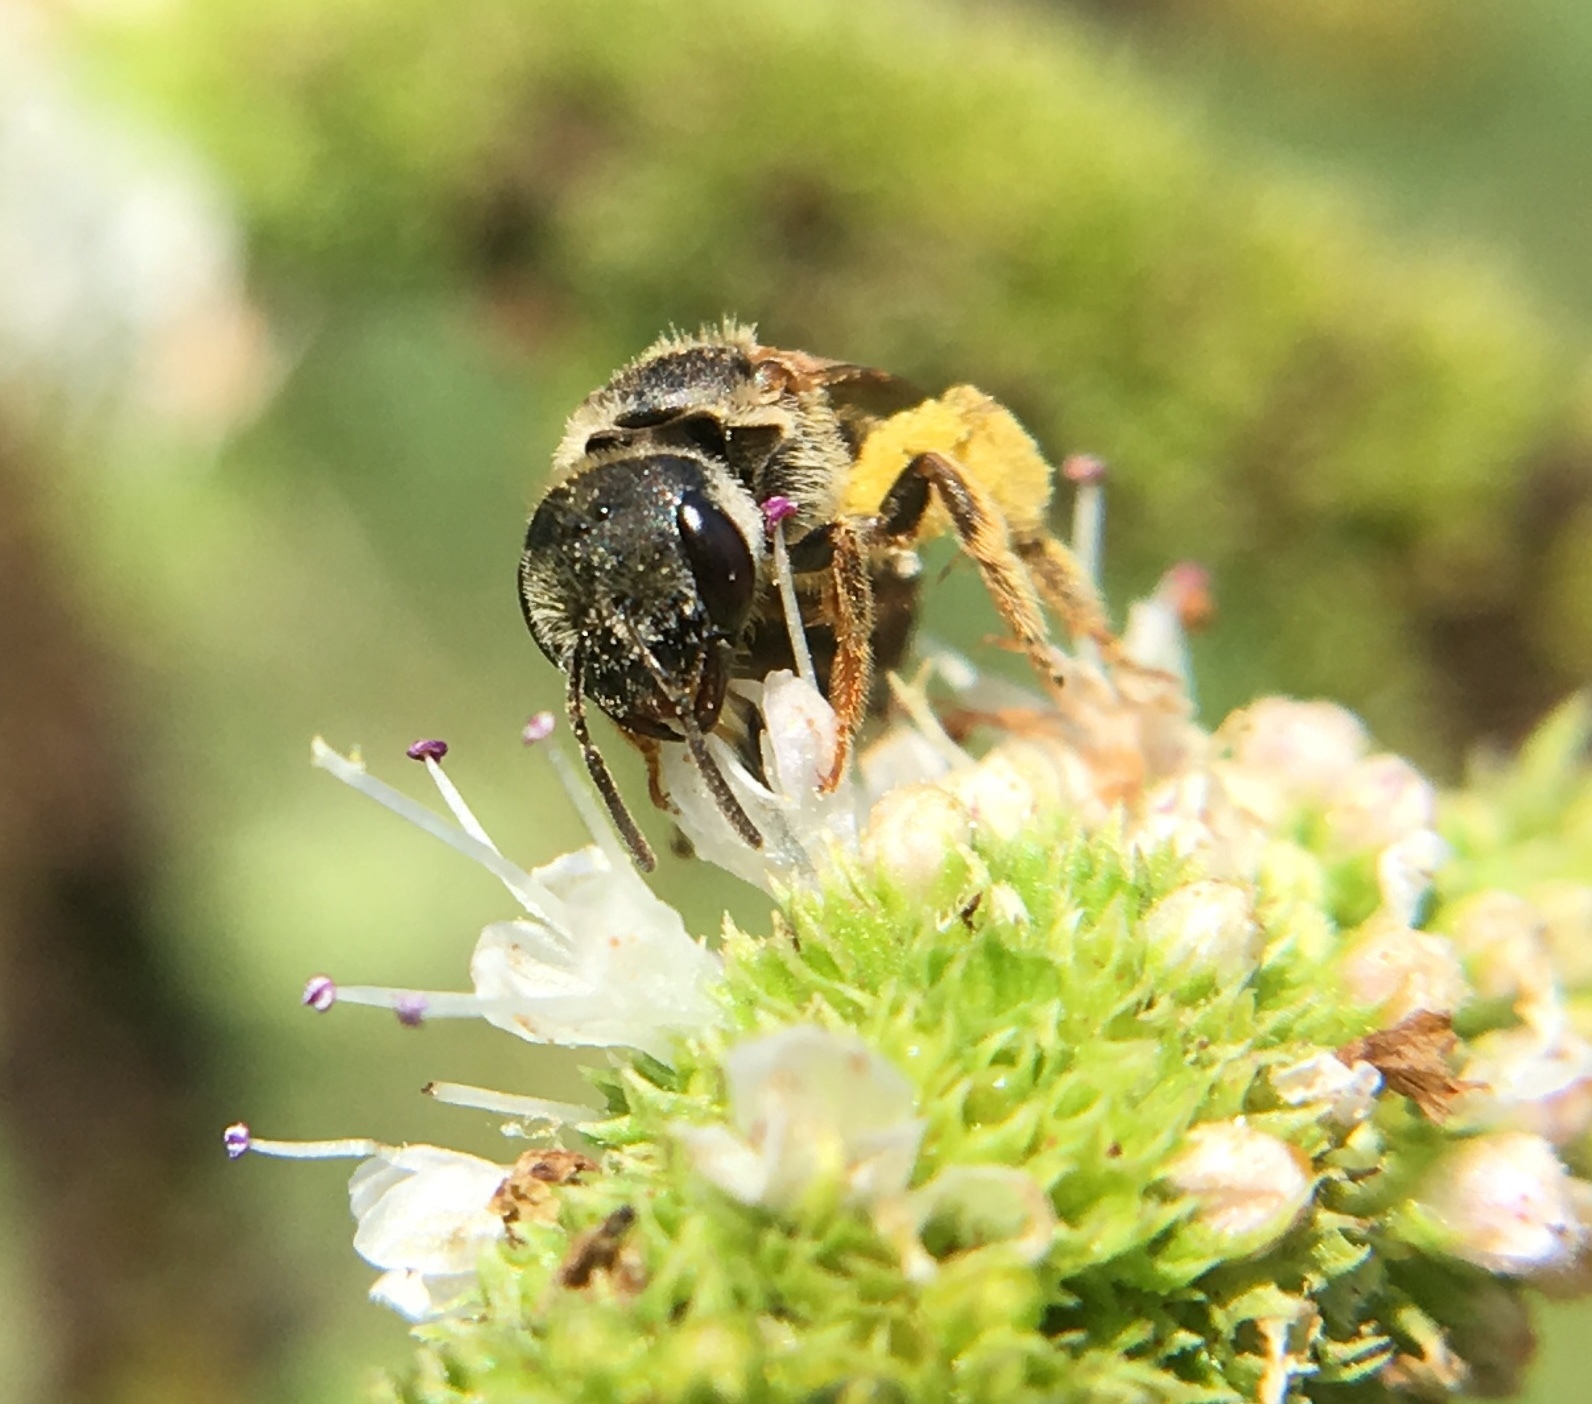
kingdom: Animalia
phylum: Arthropoda
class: Insecta
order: Hymenoptera
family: Halictidae
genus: Halictus
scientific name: Halictus ligatus
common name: Ligated furrow bee
